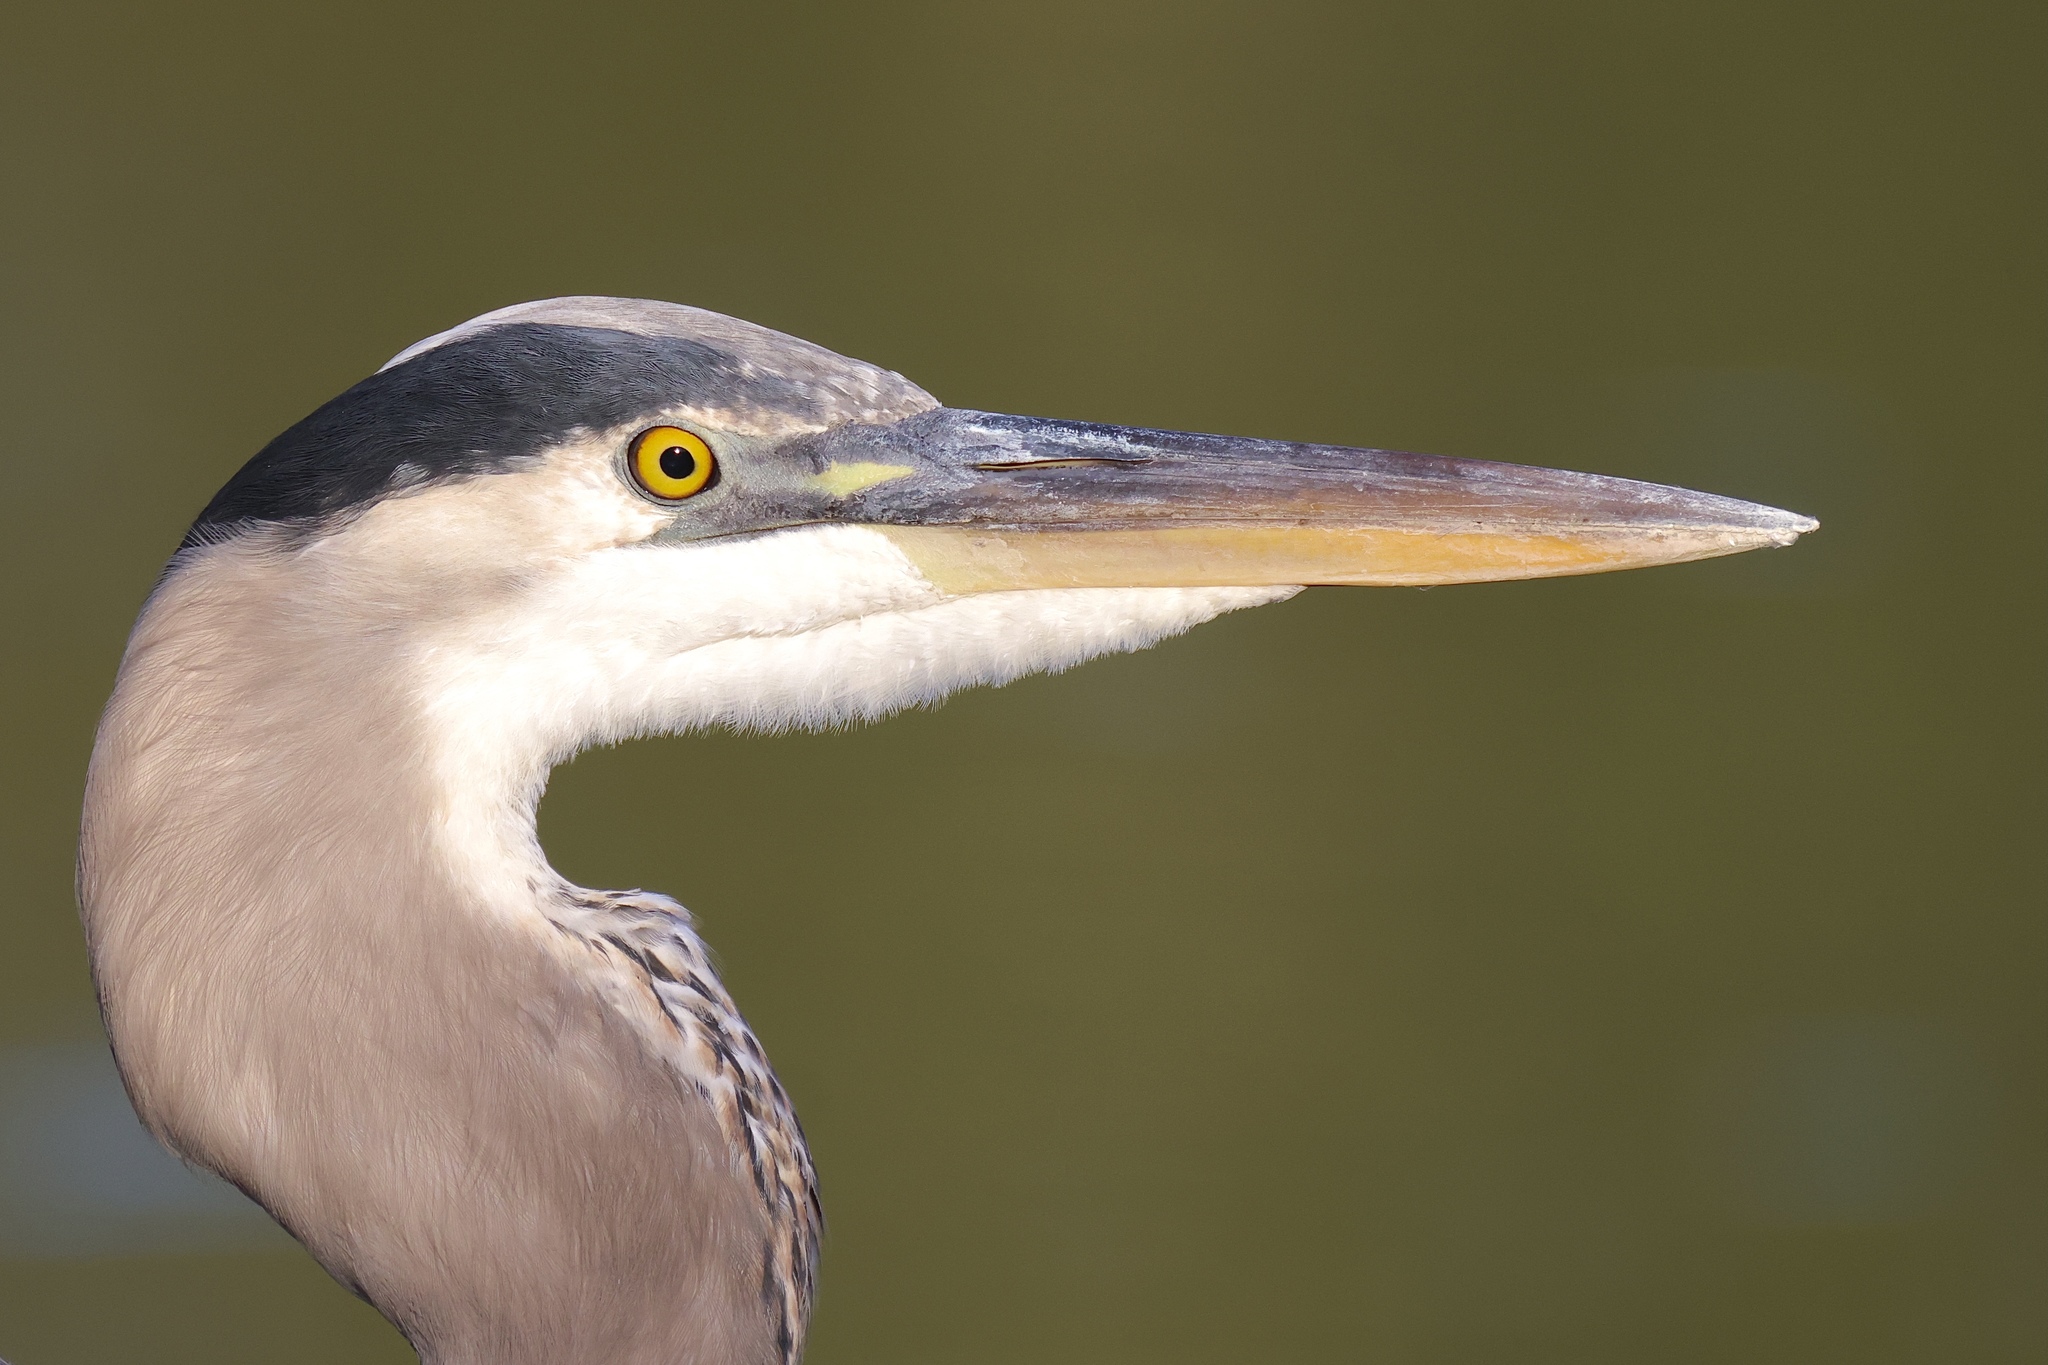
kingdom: Animalia
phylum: Chordata
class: Aves
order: Pelecaniformes
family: Ardeidae
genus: Ardea
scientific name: Ardea herodias
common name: Great blue heron
